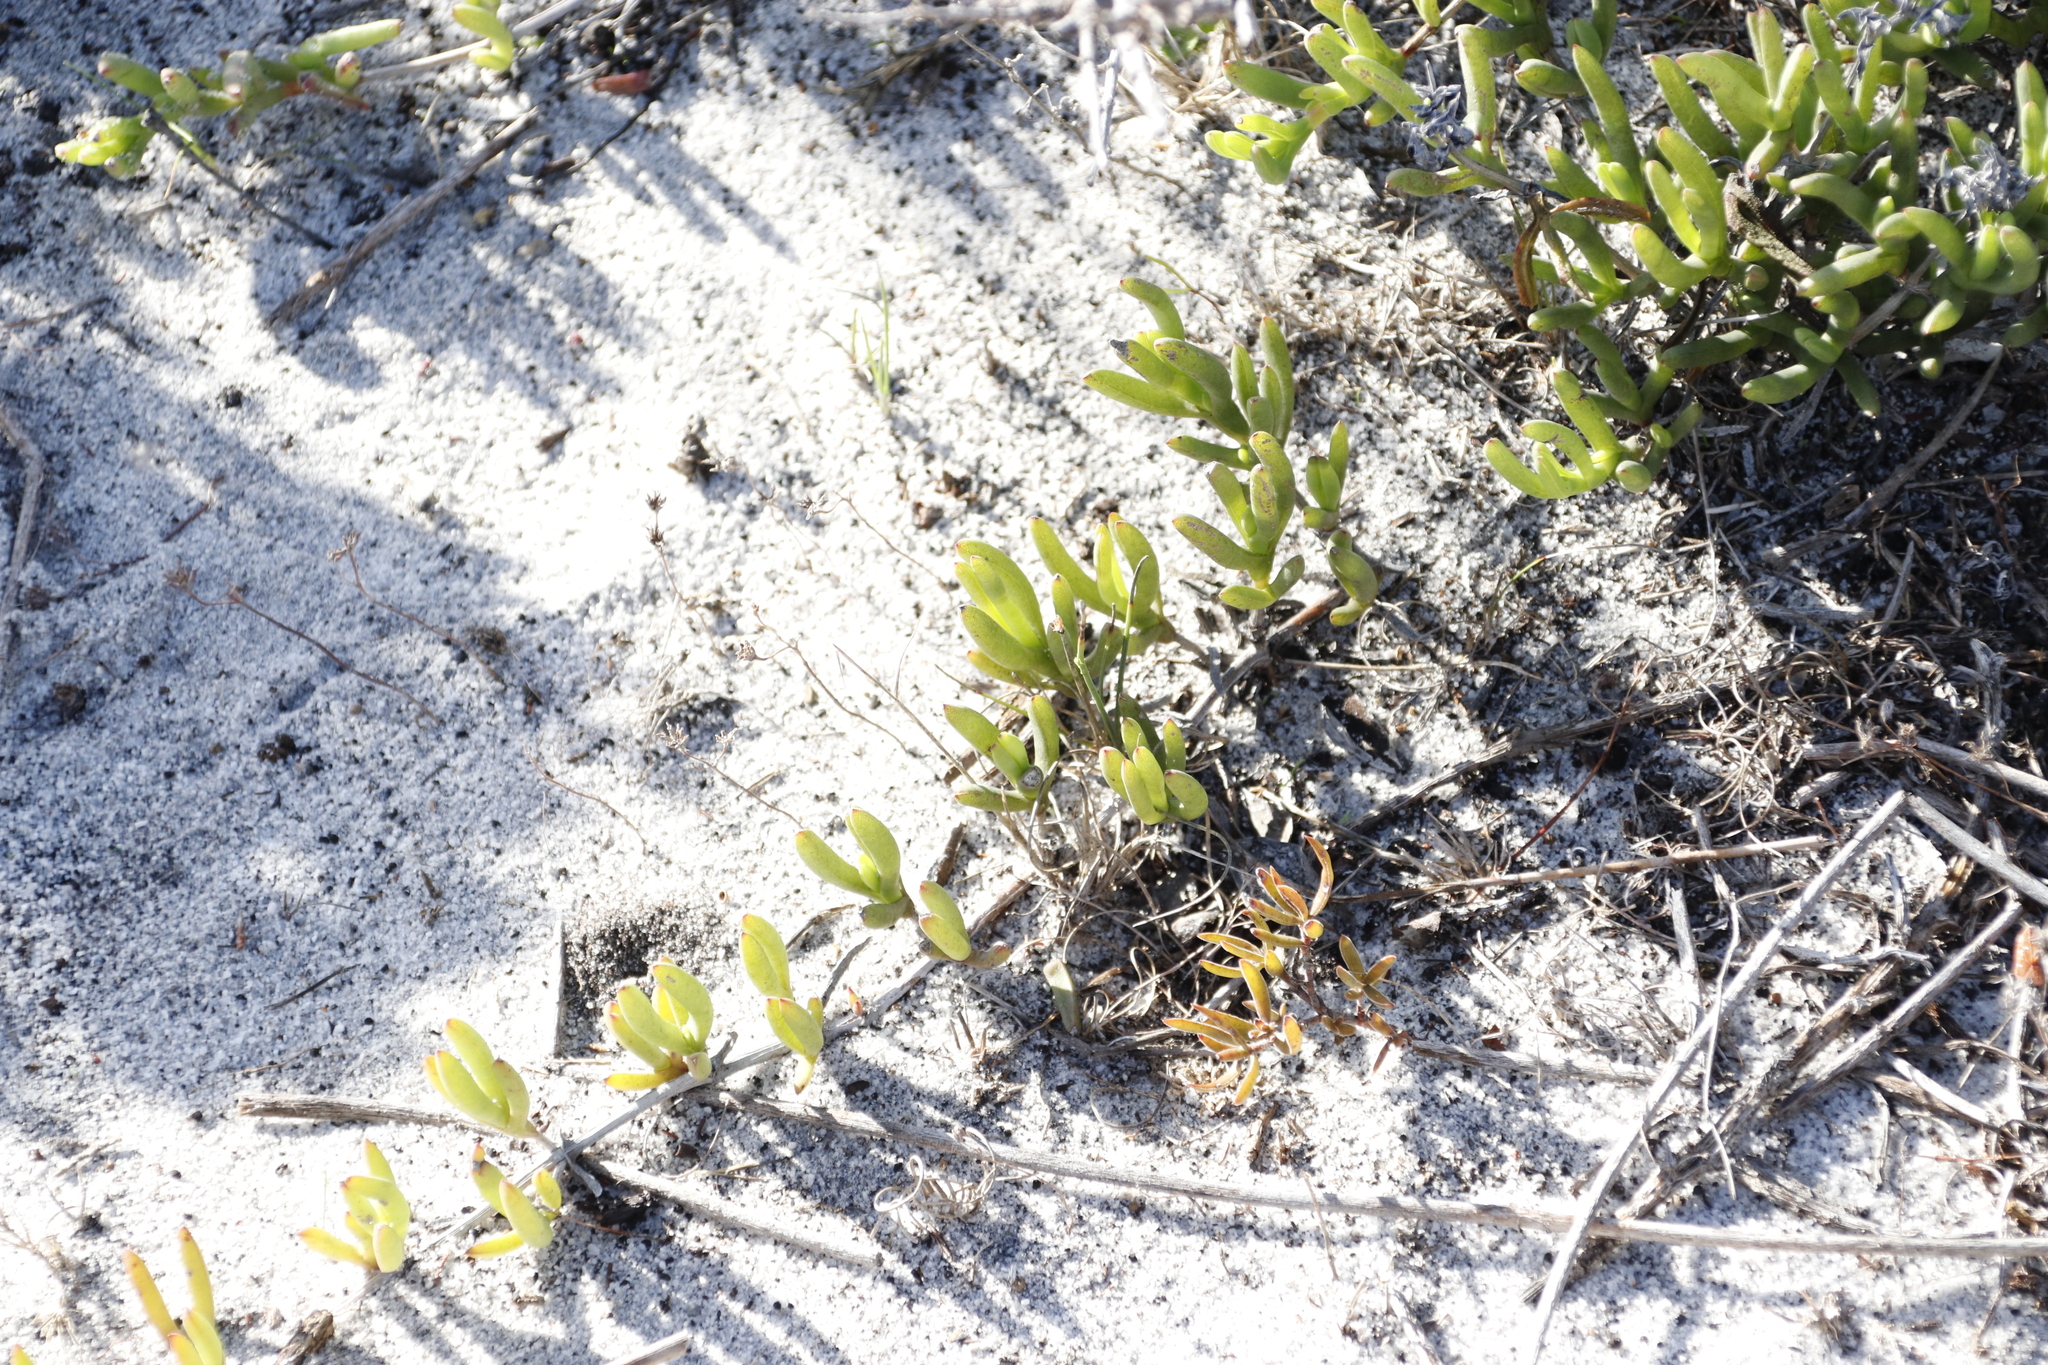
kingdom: Plantae
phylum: Tracheophyta
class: Magnoliopsida
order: Caryophyllales
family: Aizoaceae
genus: Ruschia
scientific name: Ruschia sarmentosa
